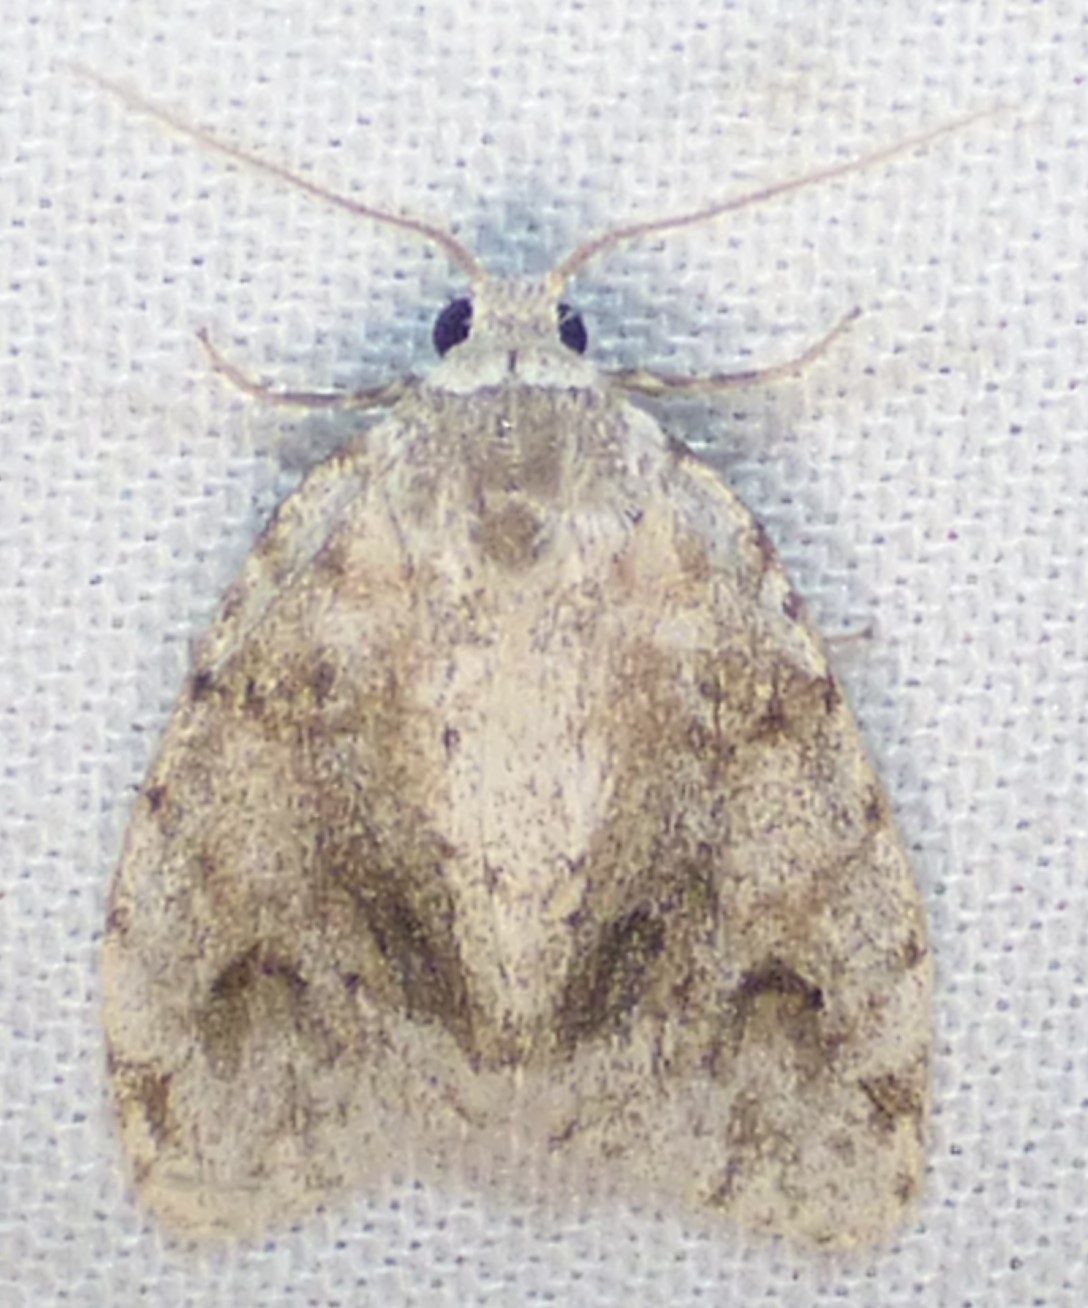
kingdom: Animalia
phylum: Arthropoda
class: Insecta
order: Lepidoptera
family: Erebidae
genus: Clemensia
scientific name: Clemensia albata
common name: Little white lichen moth
